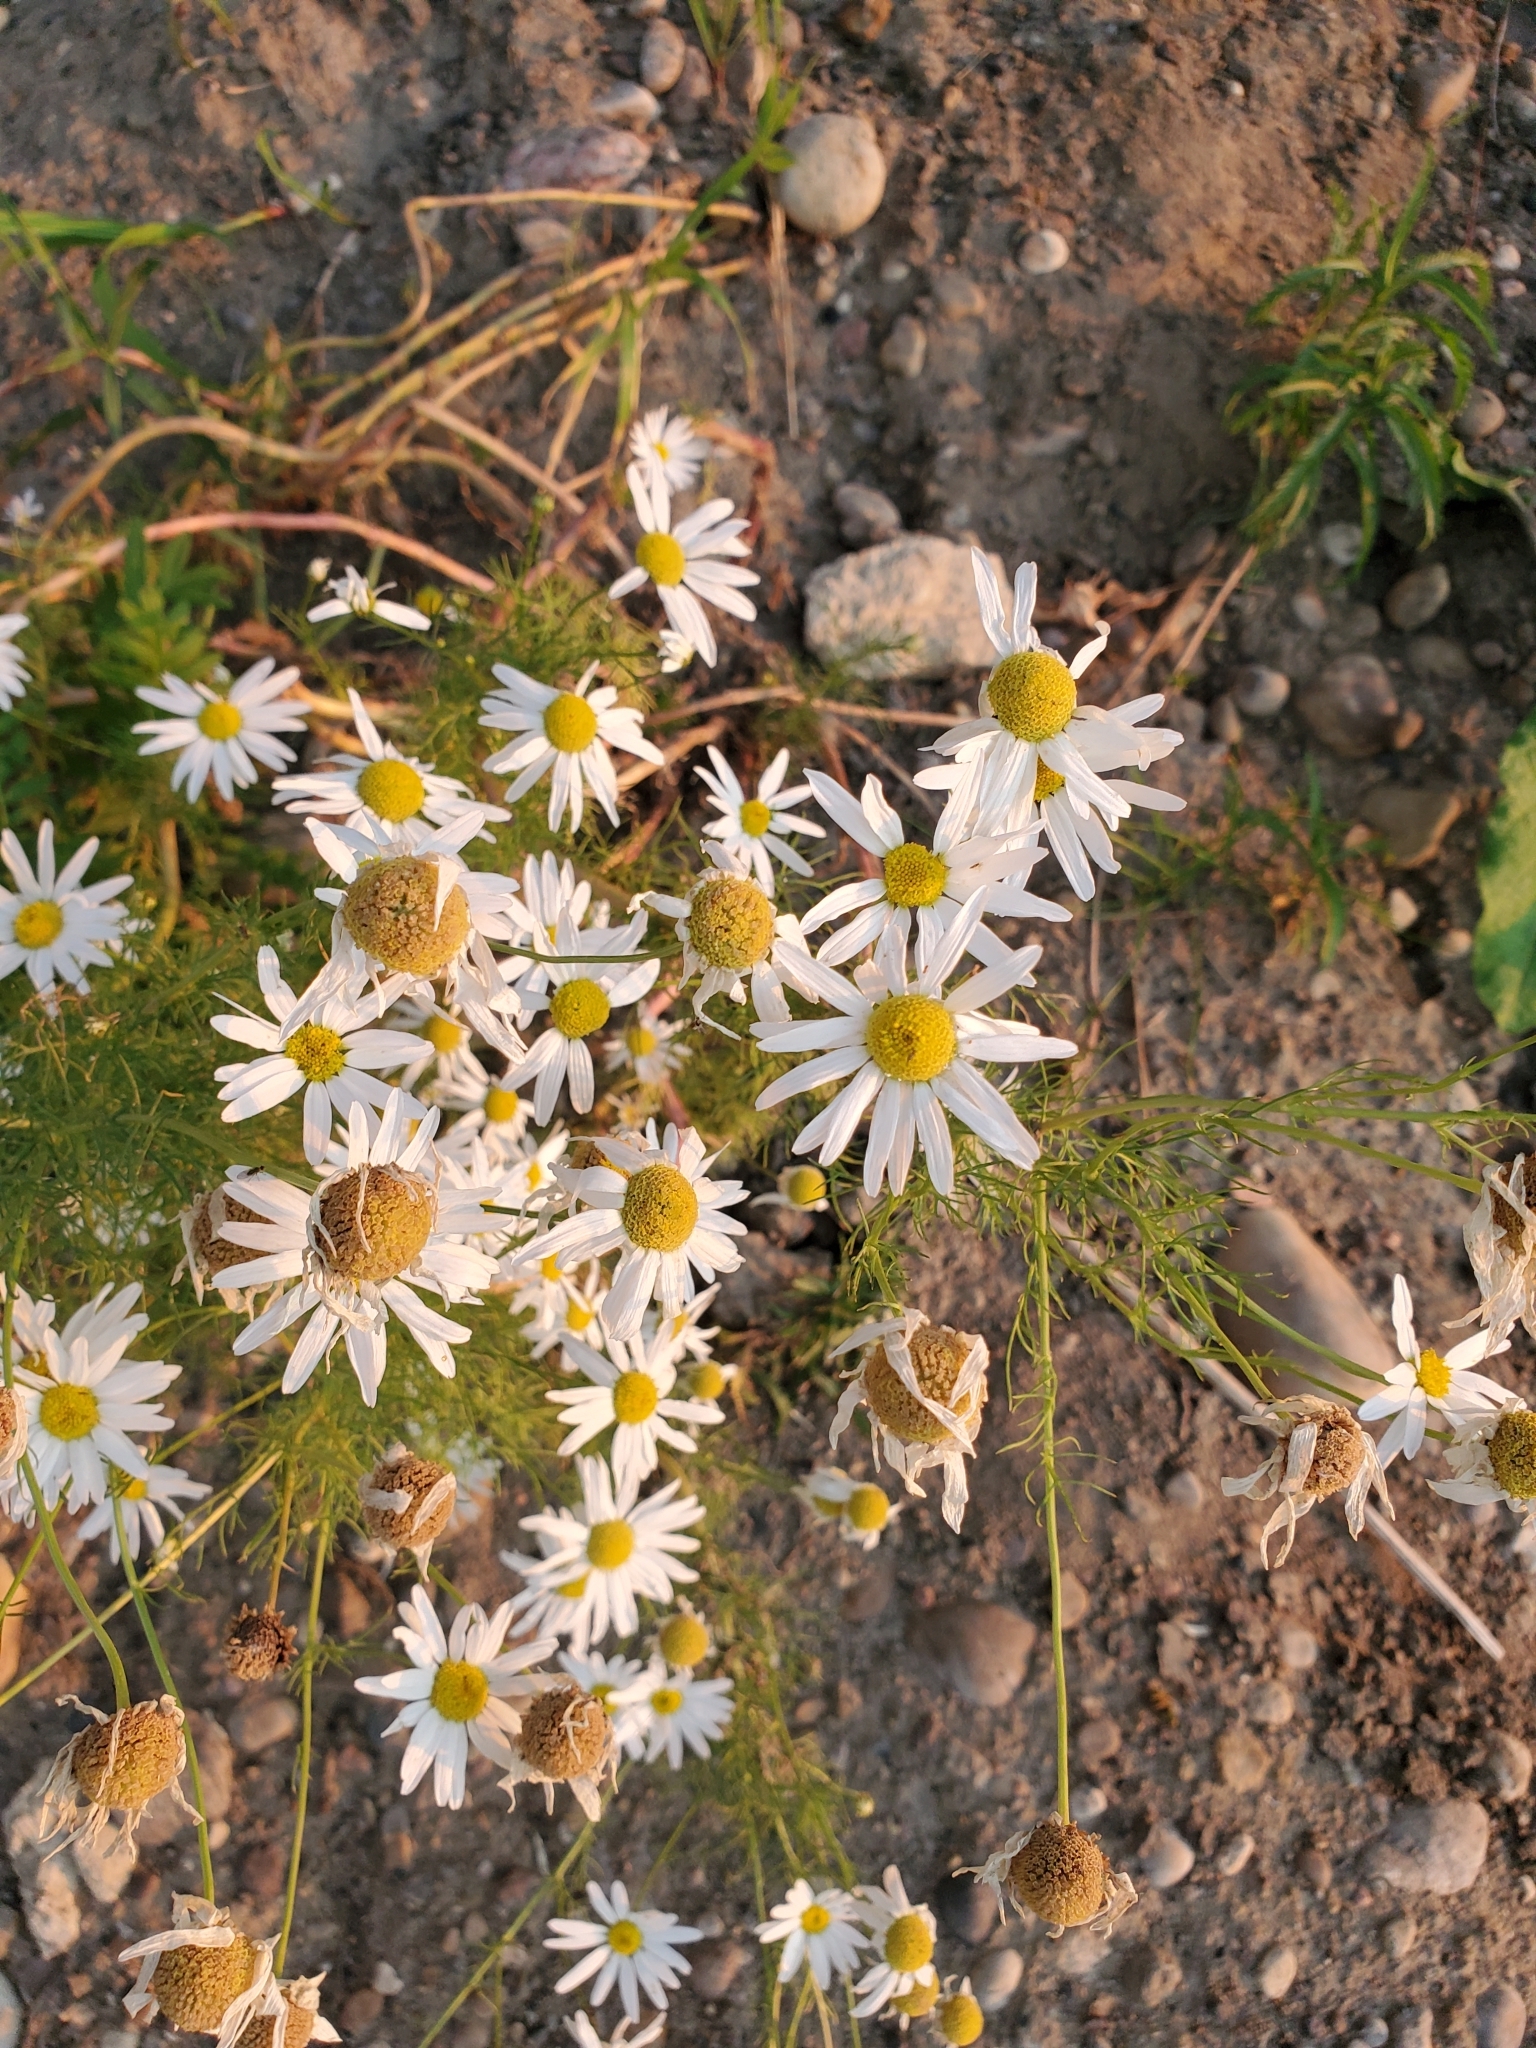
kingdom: Plantae
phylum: Tracheophyta
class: Magnoliopsida
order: Asterales
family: Asteraceae
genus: Tripleurospermum
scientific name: Tripleurospermum inodorum
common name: Scentless mayweed
